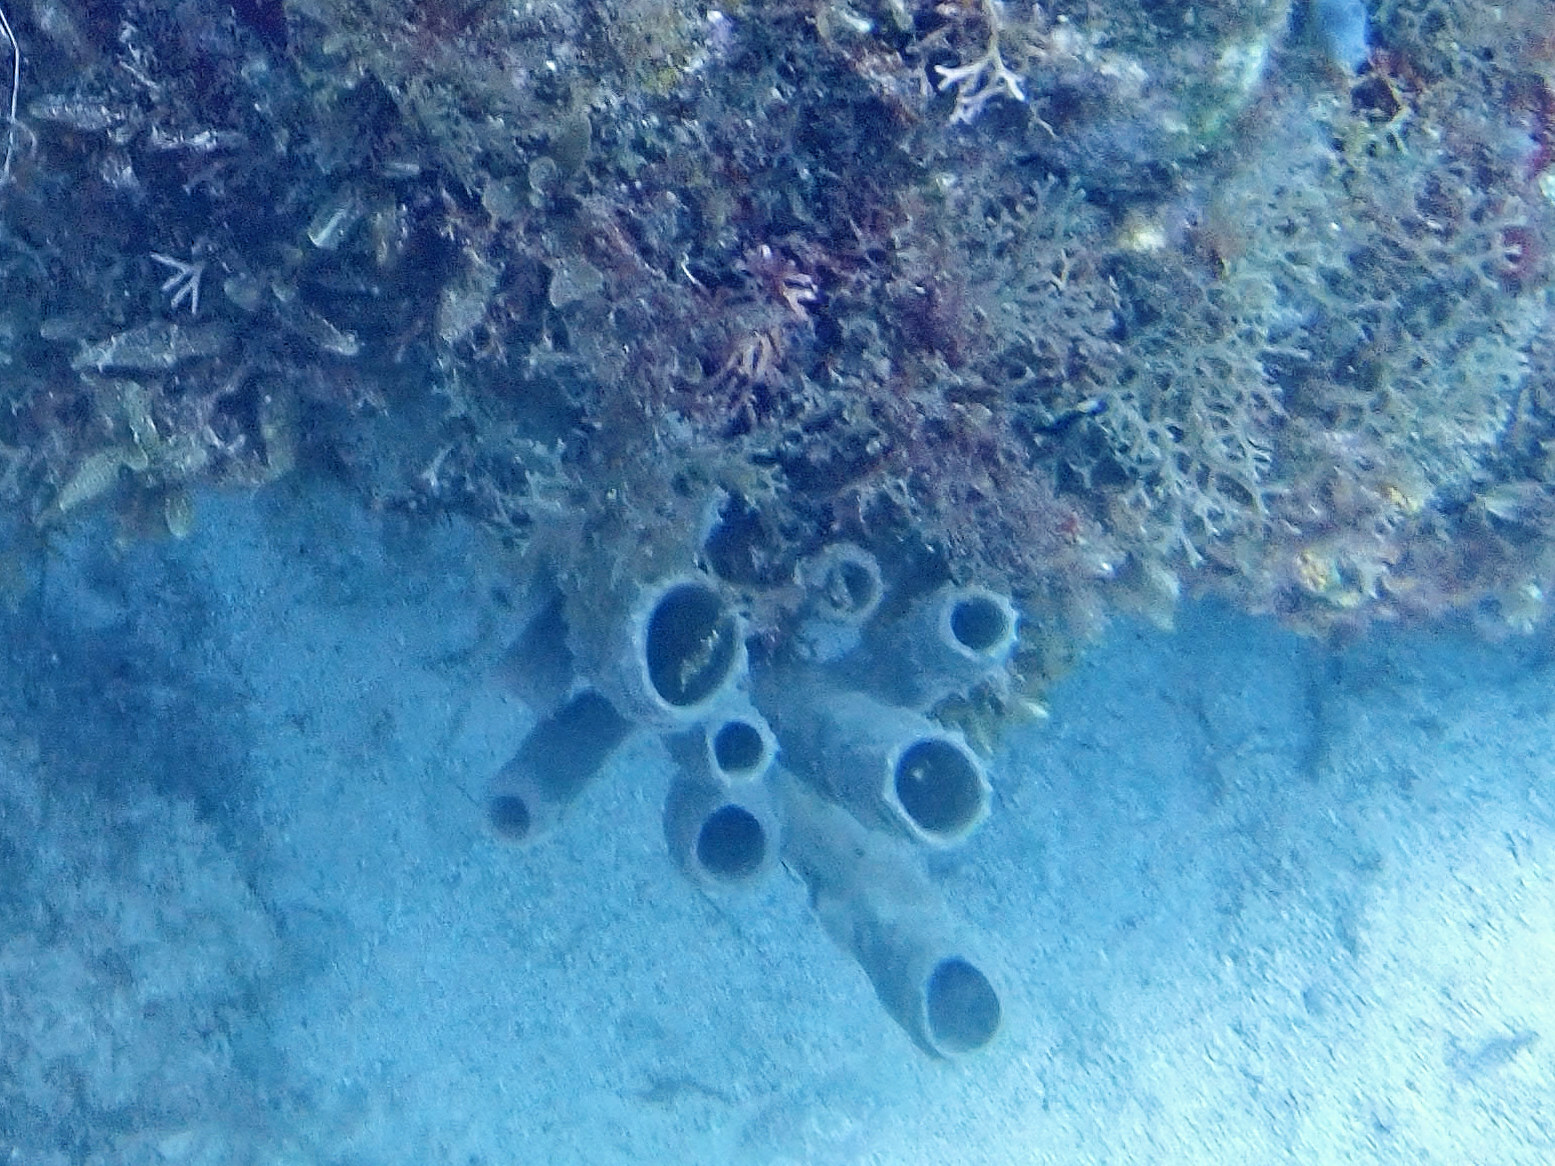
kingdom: Animalia
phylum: Porifera
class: Demospongiae
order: Haplosclerida
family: Callyspongiidae
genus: Callyspongia
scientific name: Callyspongia aculeata
